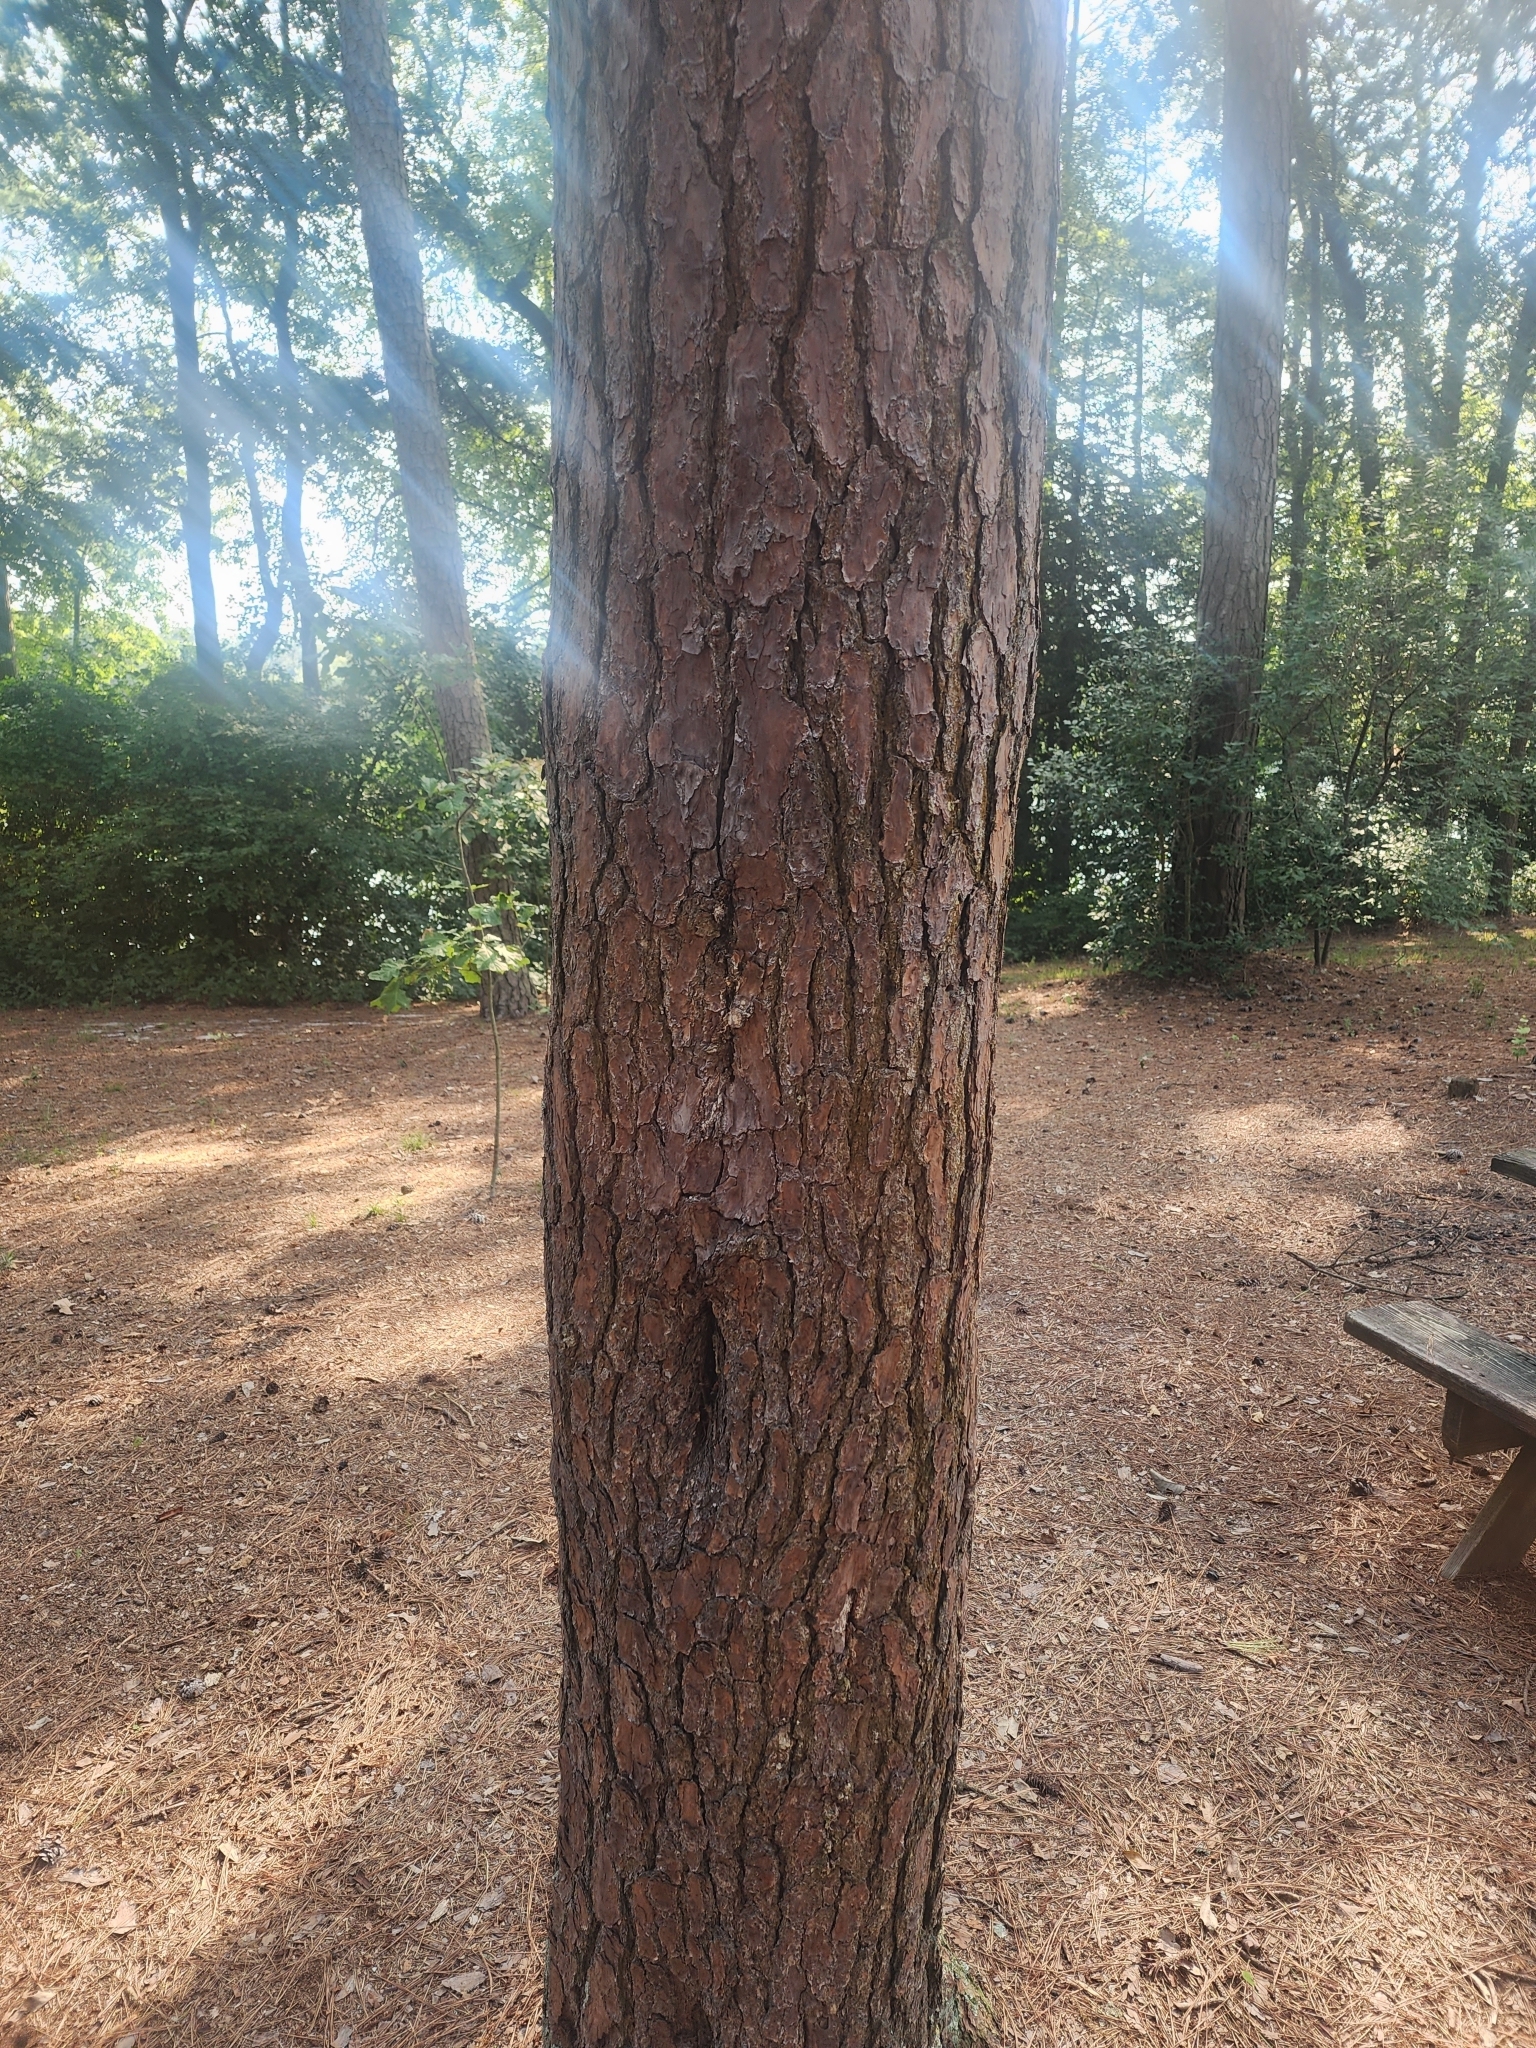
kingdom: Plantae
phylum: Tracheophyta
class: Pinopsida
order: Pinales
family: Pinaceae
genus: Pinus
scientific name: Pinus virginiana
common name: Scrub pine
